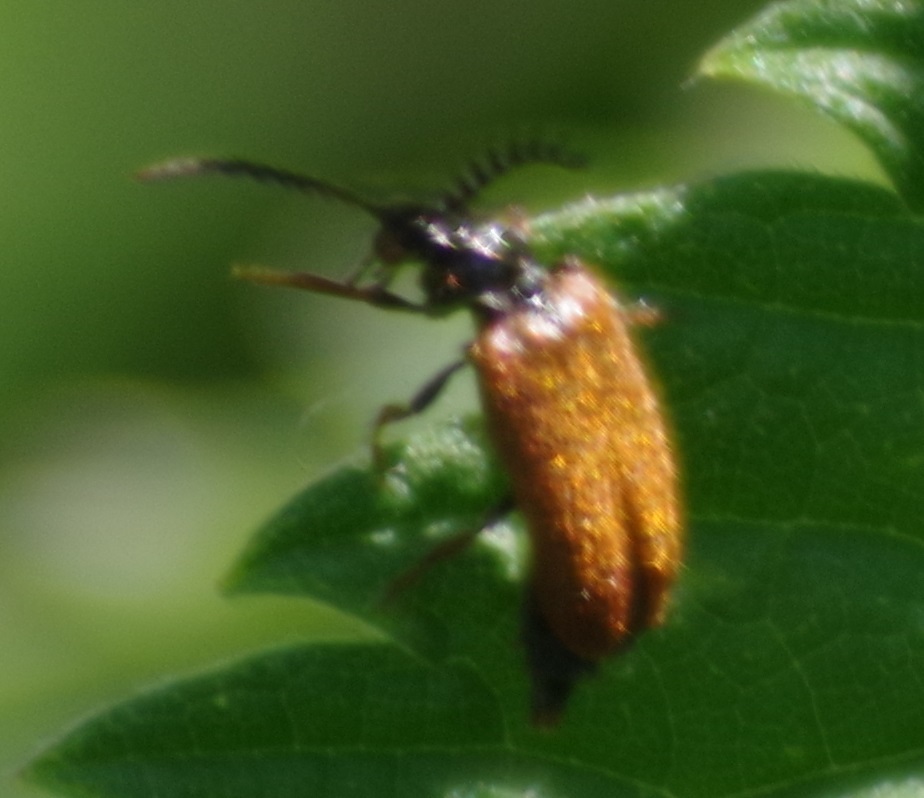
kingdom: Animalia
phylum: Arthropoda
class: Insecta
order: Coleoptera
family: Drilidae
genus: Drilus
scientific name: Drilus flavescens
